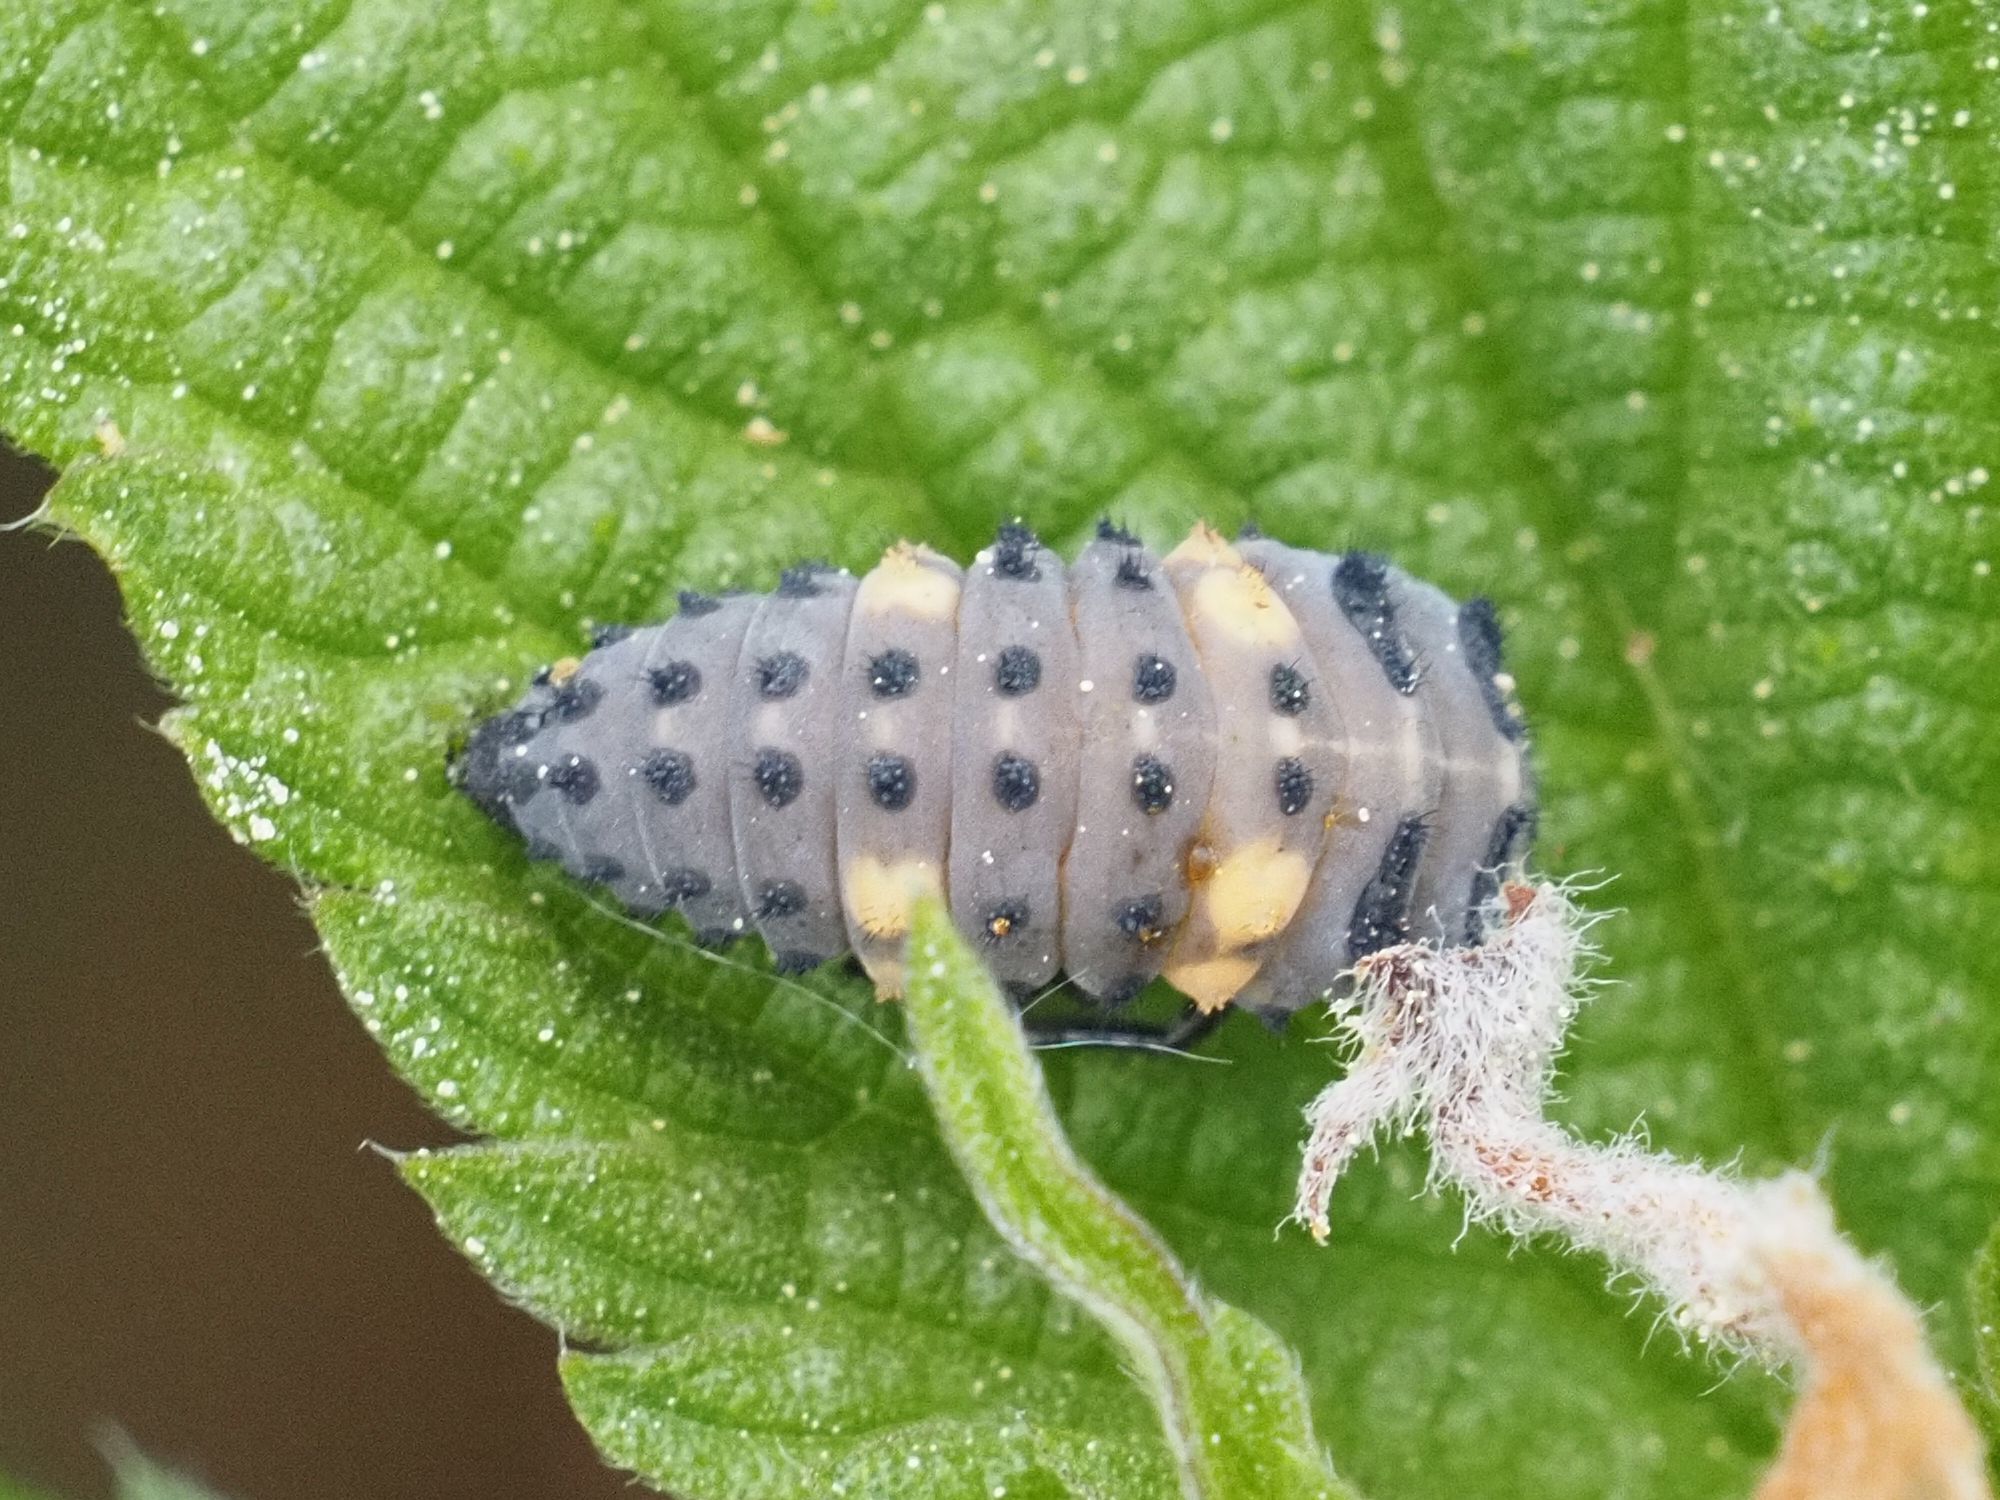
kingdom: Animalia
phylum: Arthropoda
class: Insecta
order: Coleoptera
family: Coccinellidae
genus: Coccinella
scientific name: Coccinella septempunctata
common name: Sevenspotted lady beetle
